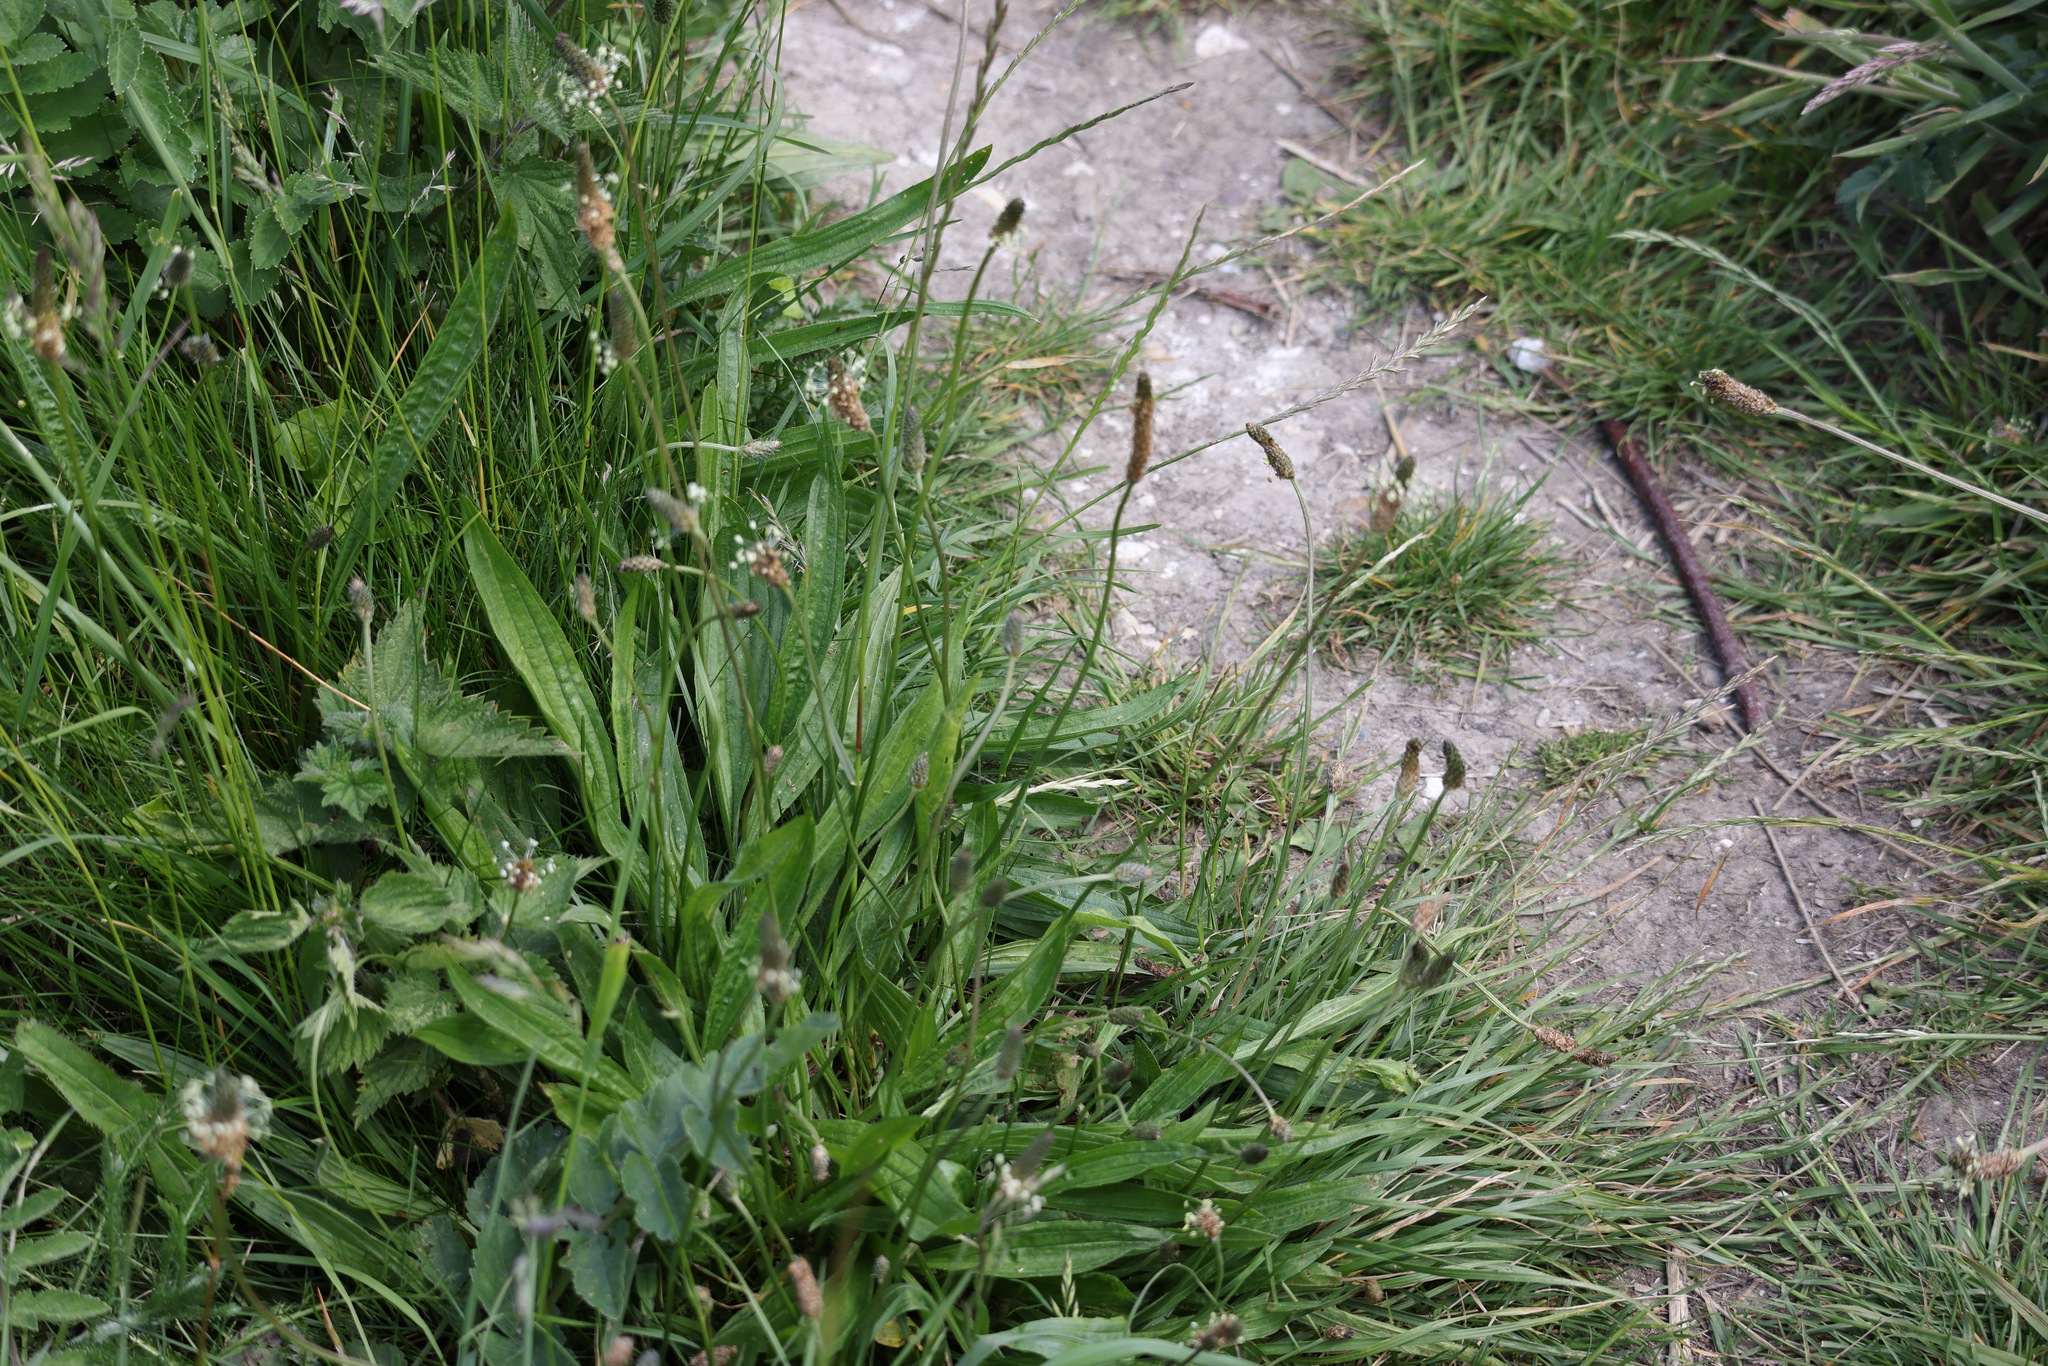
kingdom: Plantae
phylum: Tracheophyta
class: Magnoliopsida
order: Lamiales
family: Plantaginaceae
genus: Plantago
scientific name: Plantago lanceolata
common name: Ribwort plantain
